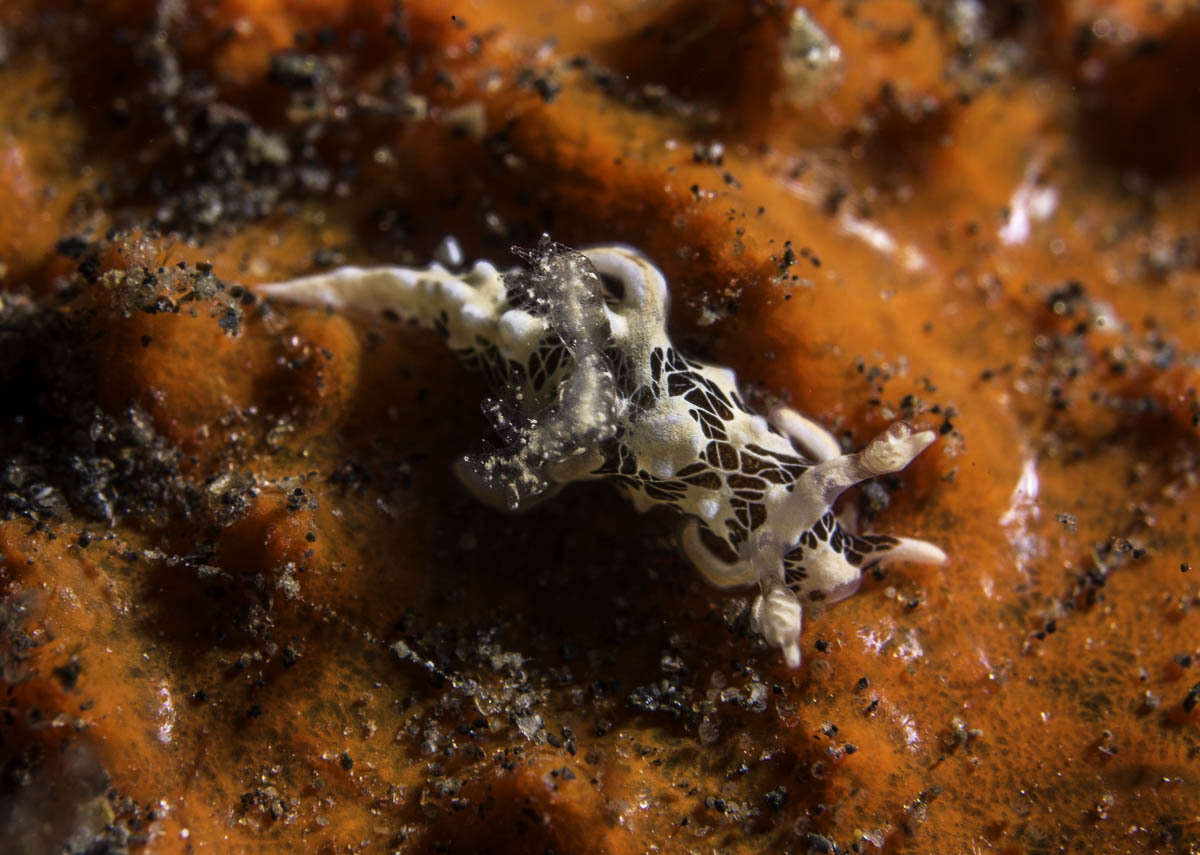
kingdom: Animalia
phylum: Mollusca
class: Gastropoda
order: Nudibranchia
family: Goniodorididae
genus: Trapania
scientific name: Trapania tora
